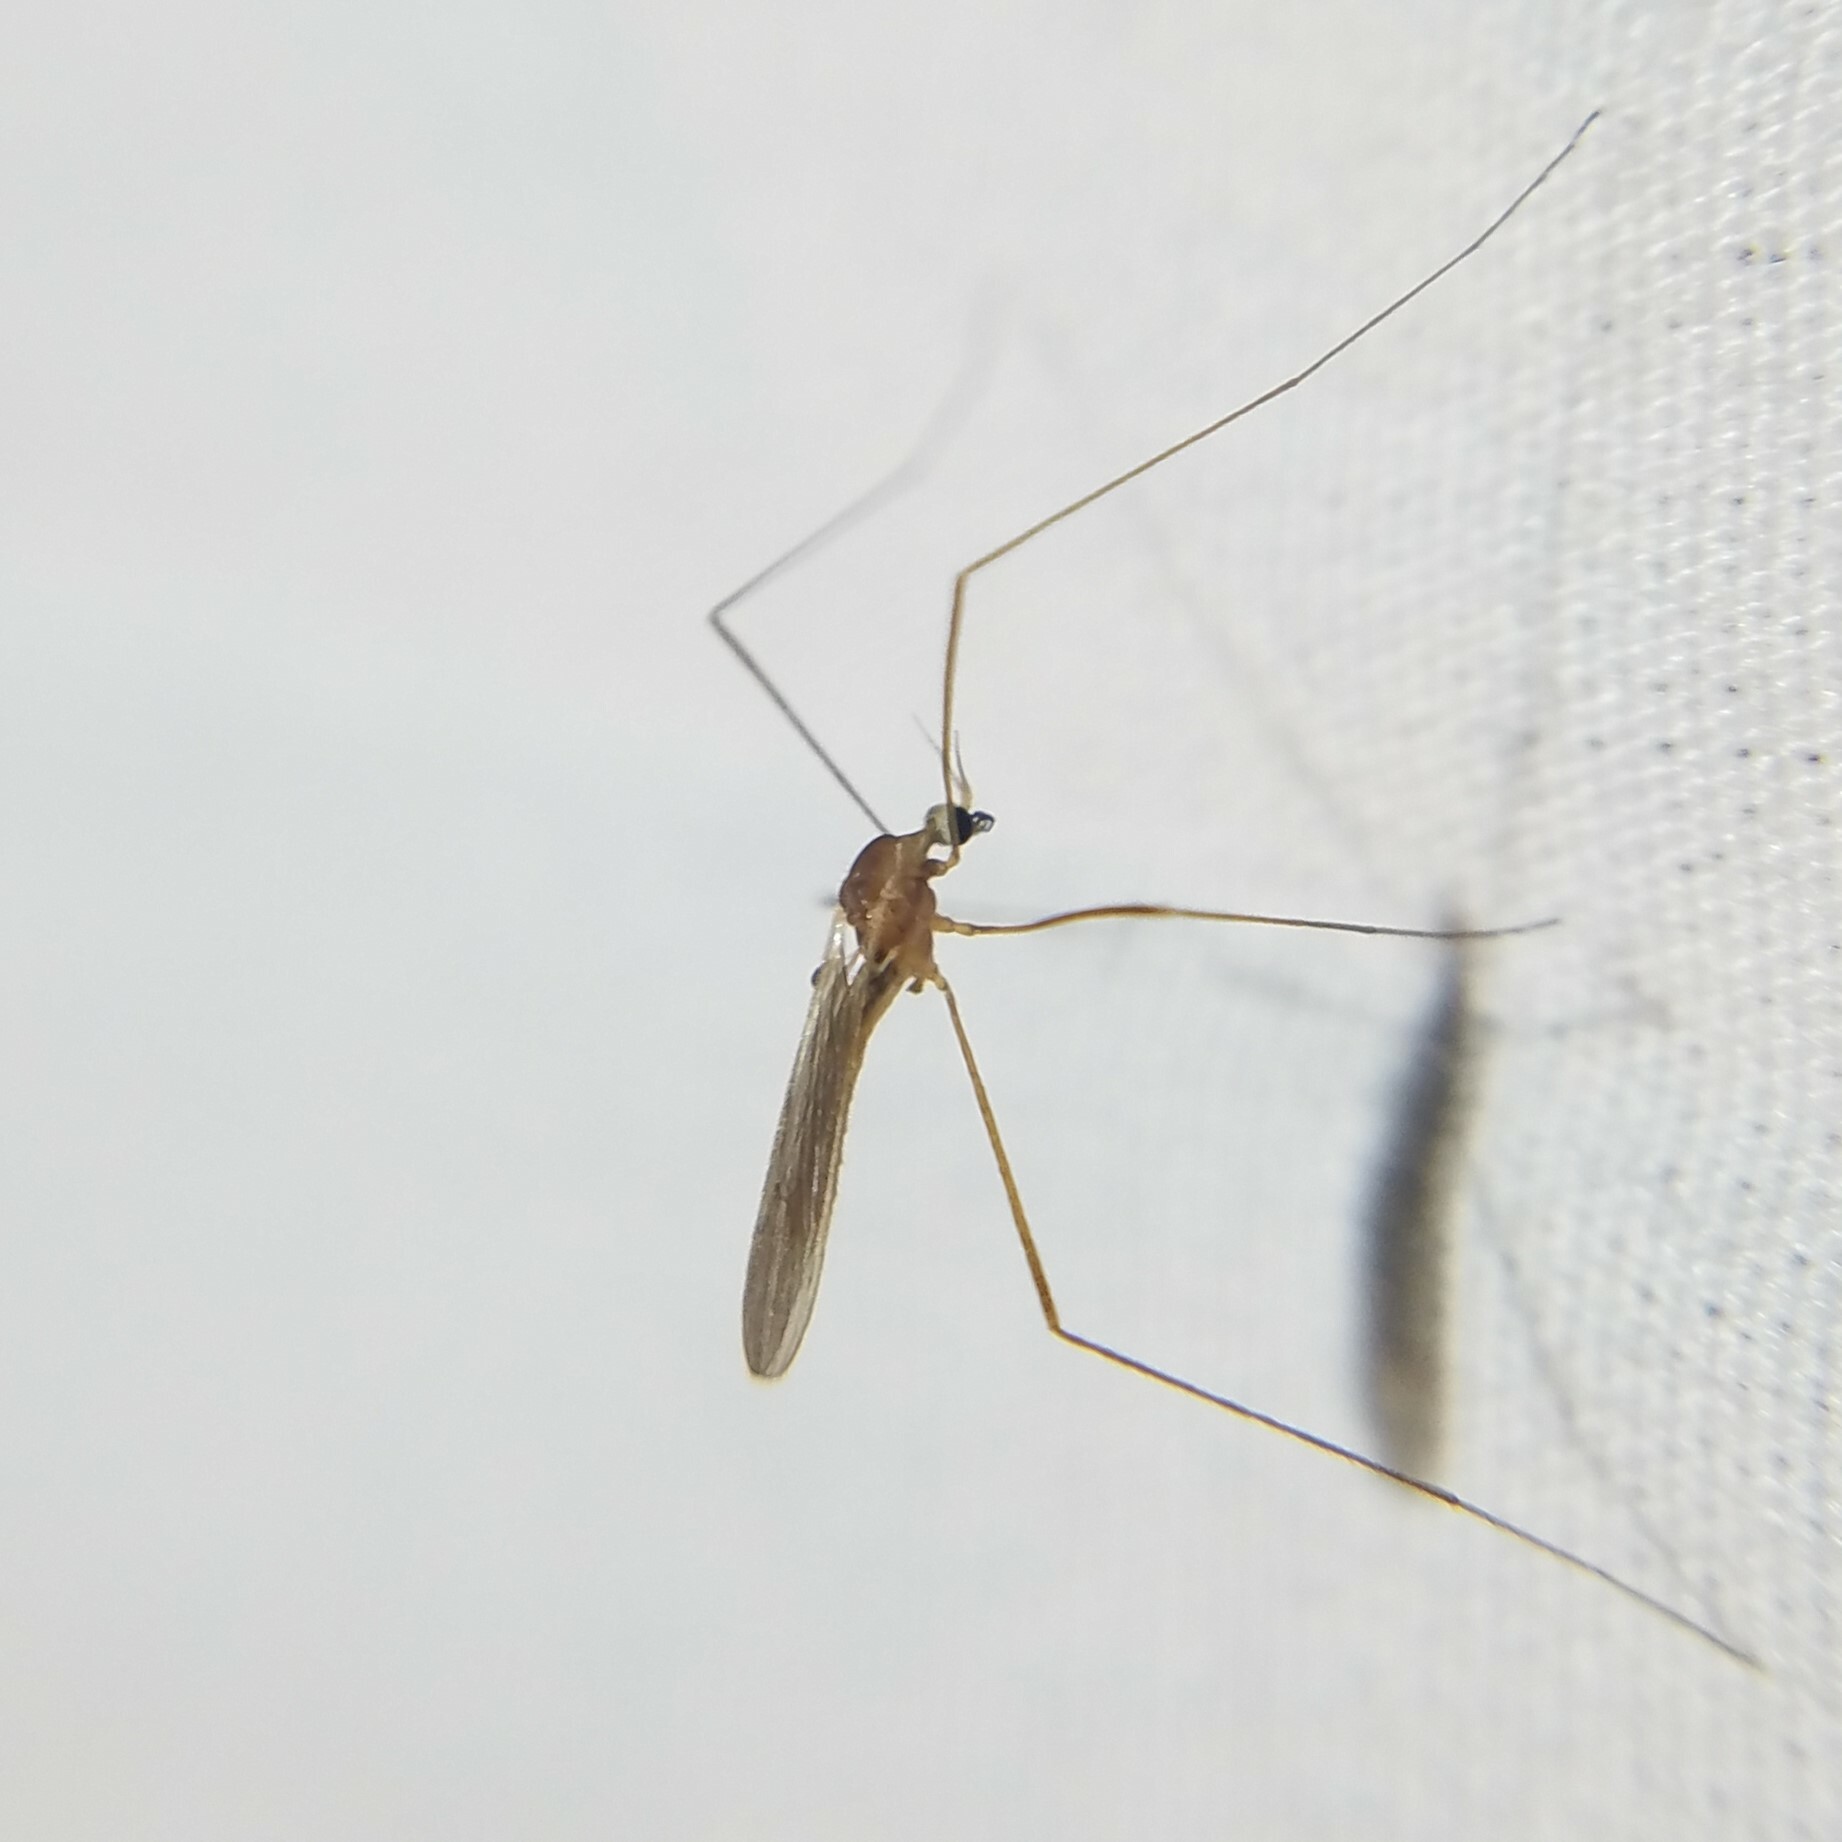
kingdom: Animalia
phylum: Arthropoda
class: Insecta
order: Diptera
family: Limoniidae
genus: Erioptera
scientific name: Erioptera septemtrionis
